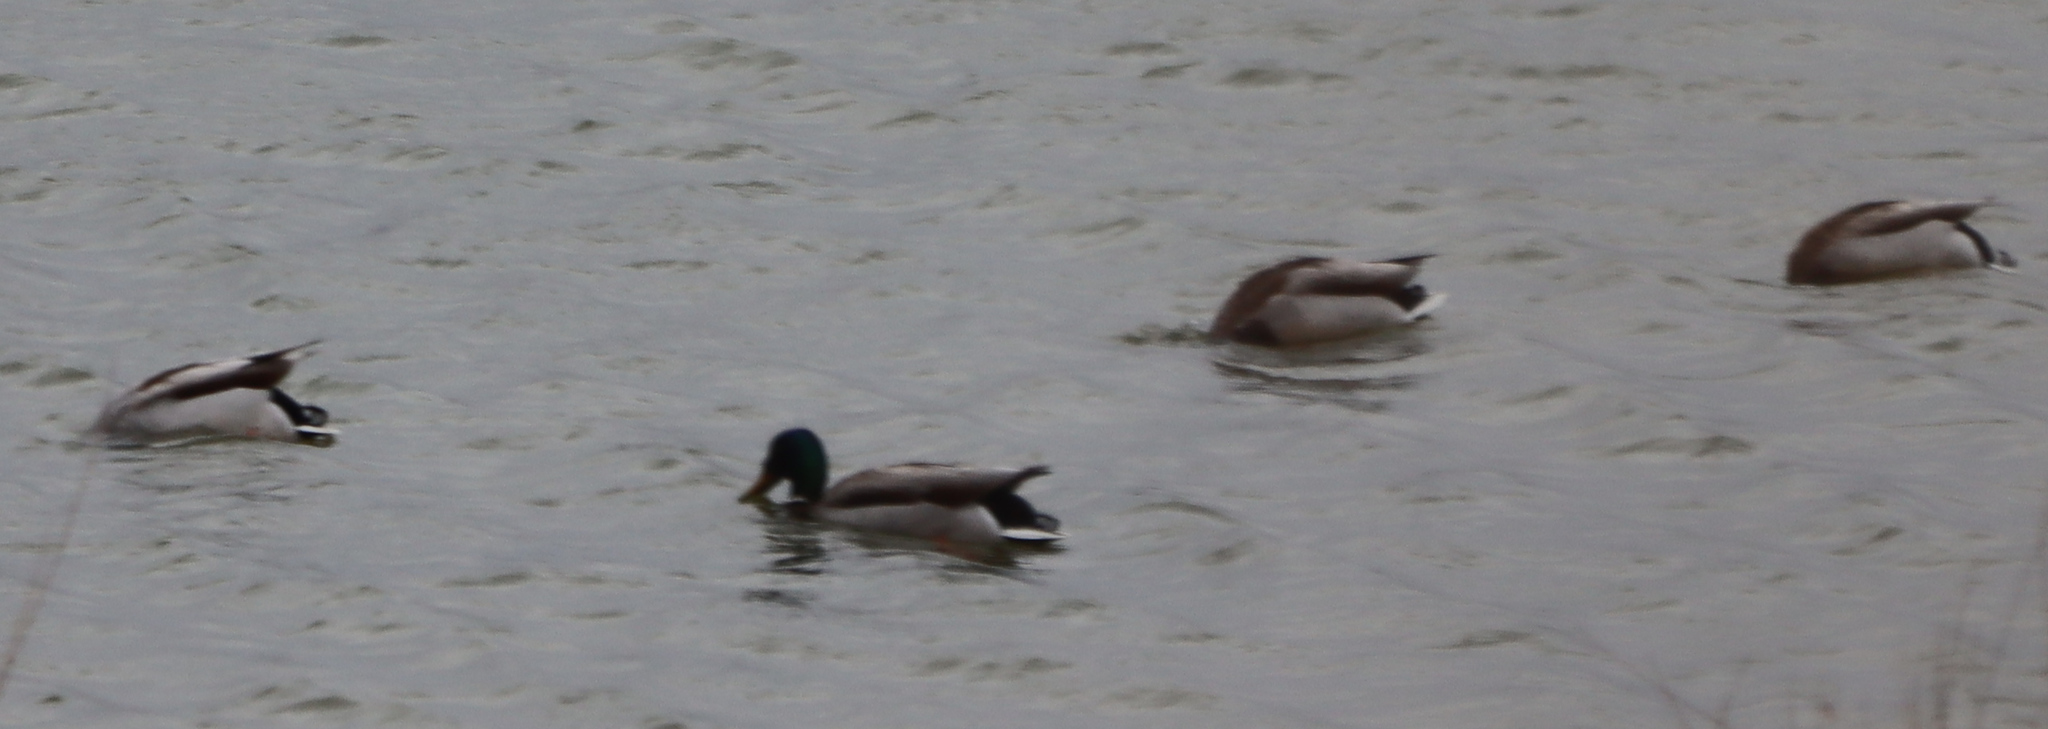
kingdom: Animalia
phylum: Chordata
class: Aves
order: Anseriformes
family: Anatidae
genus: Anas
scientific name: Anas platyrhynchos
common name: Mallard
